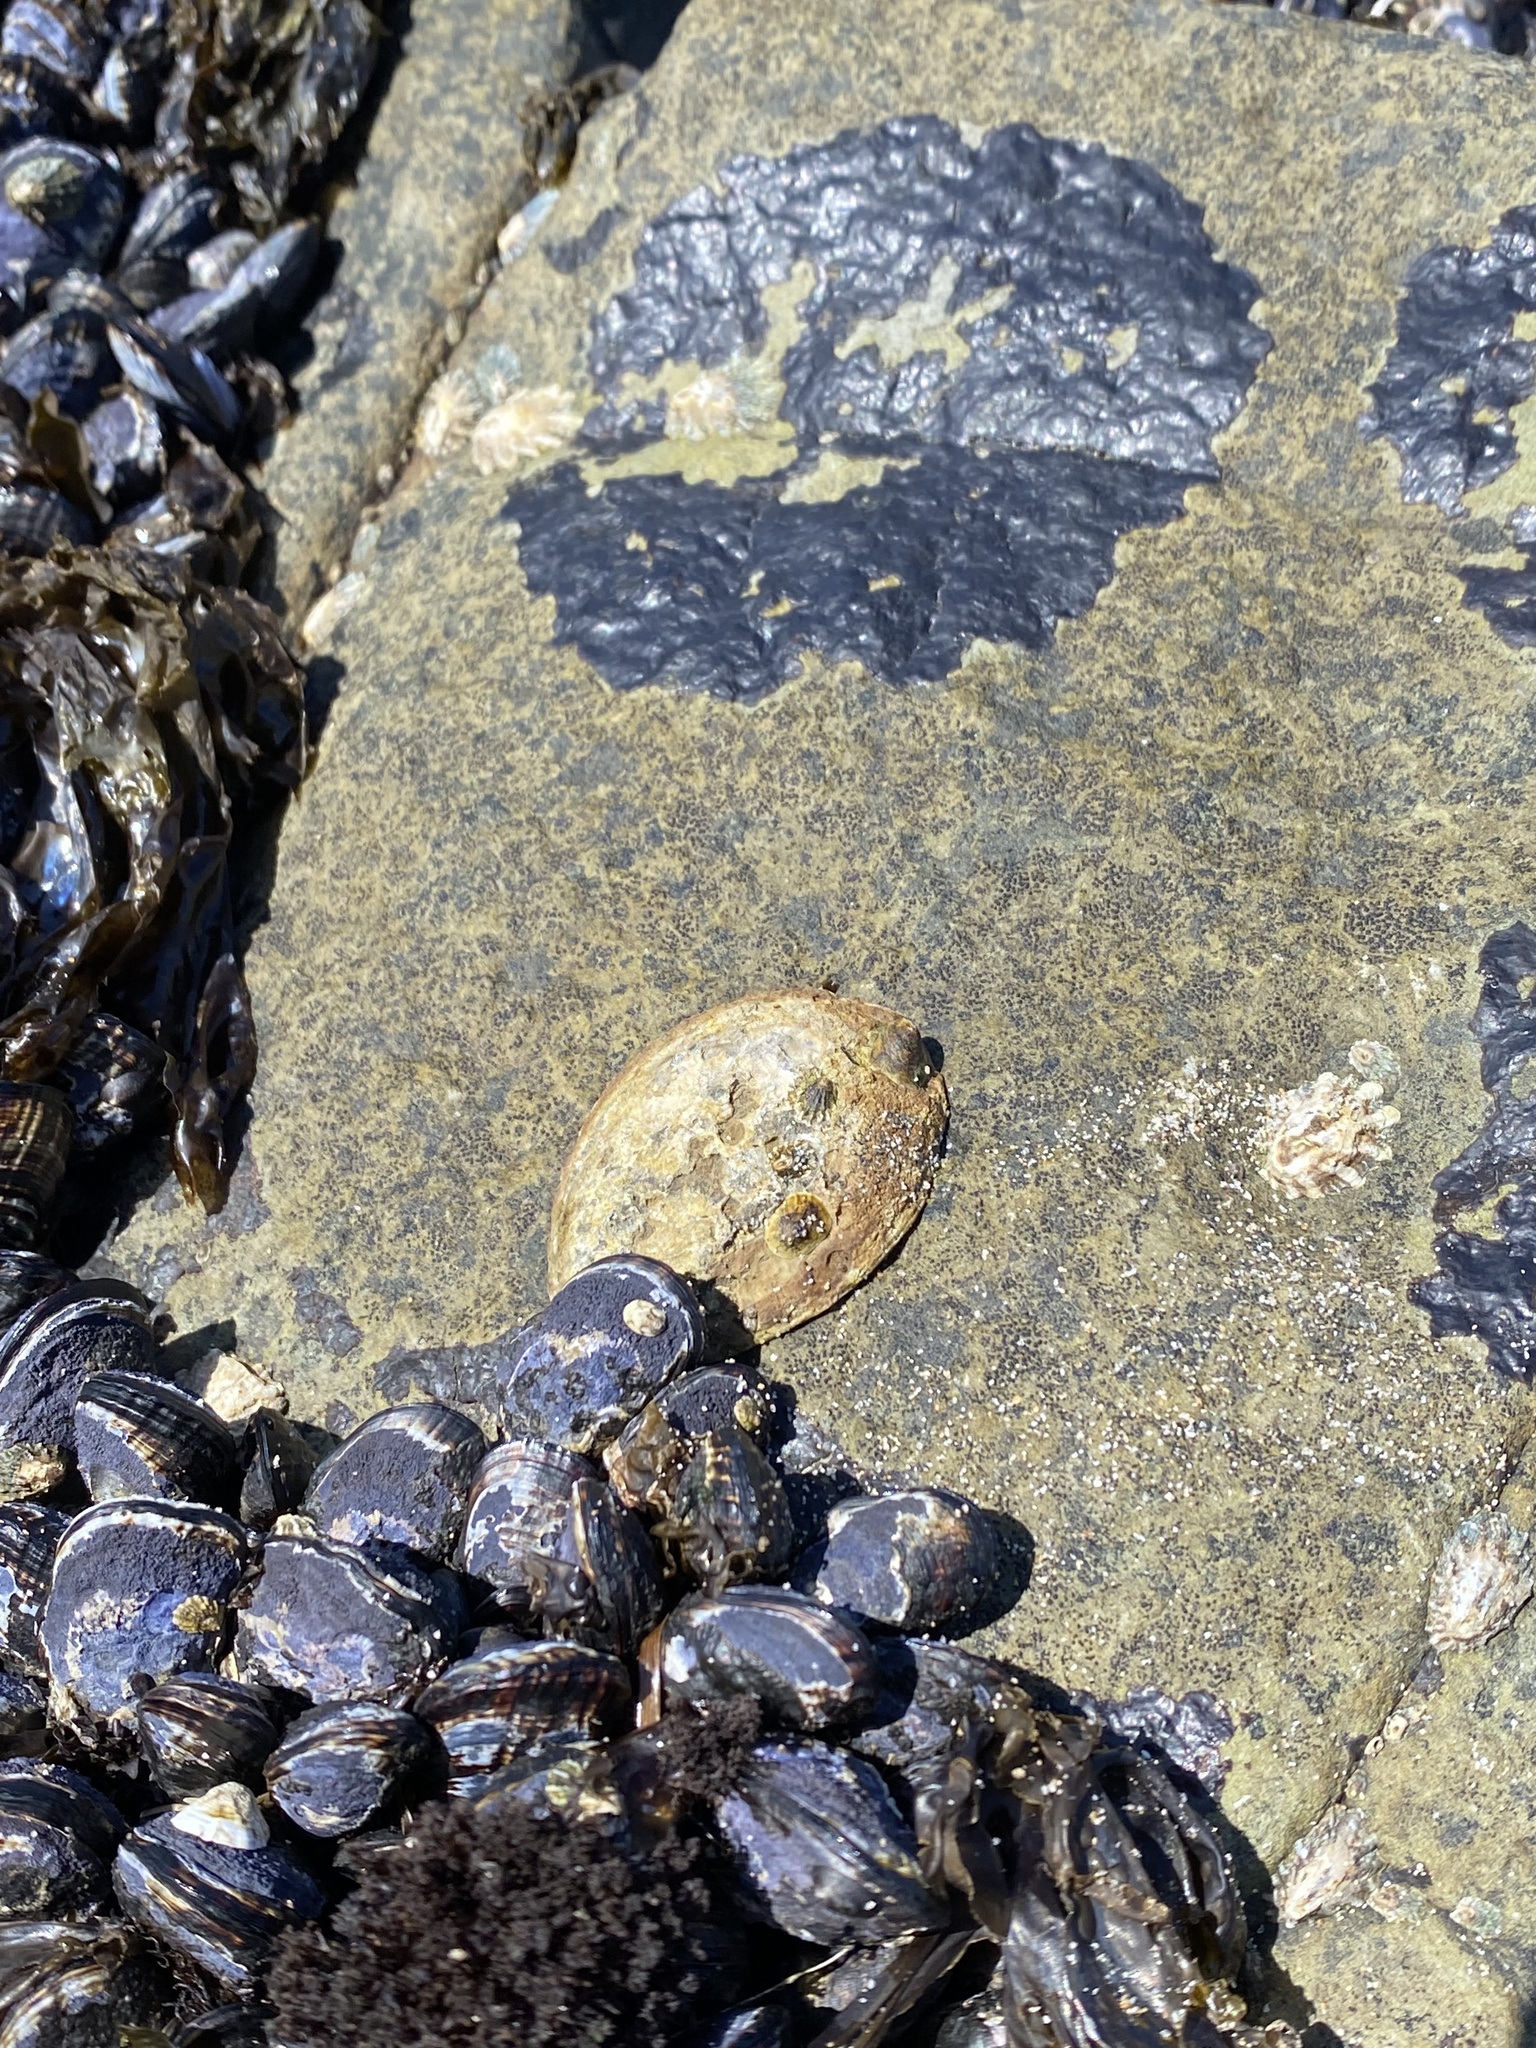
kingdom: Animalia
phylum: Mollusca
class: Gastropoda
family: Lottiidae
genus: Lottia
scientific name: Lottia gigantea
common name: Owl limpet
